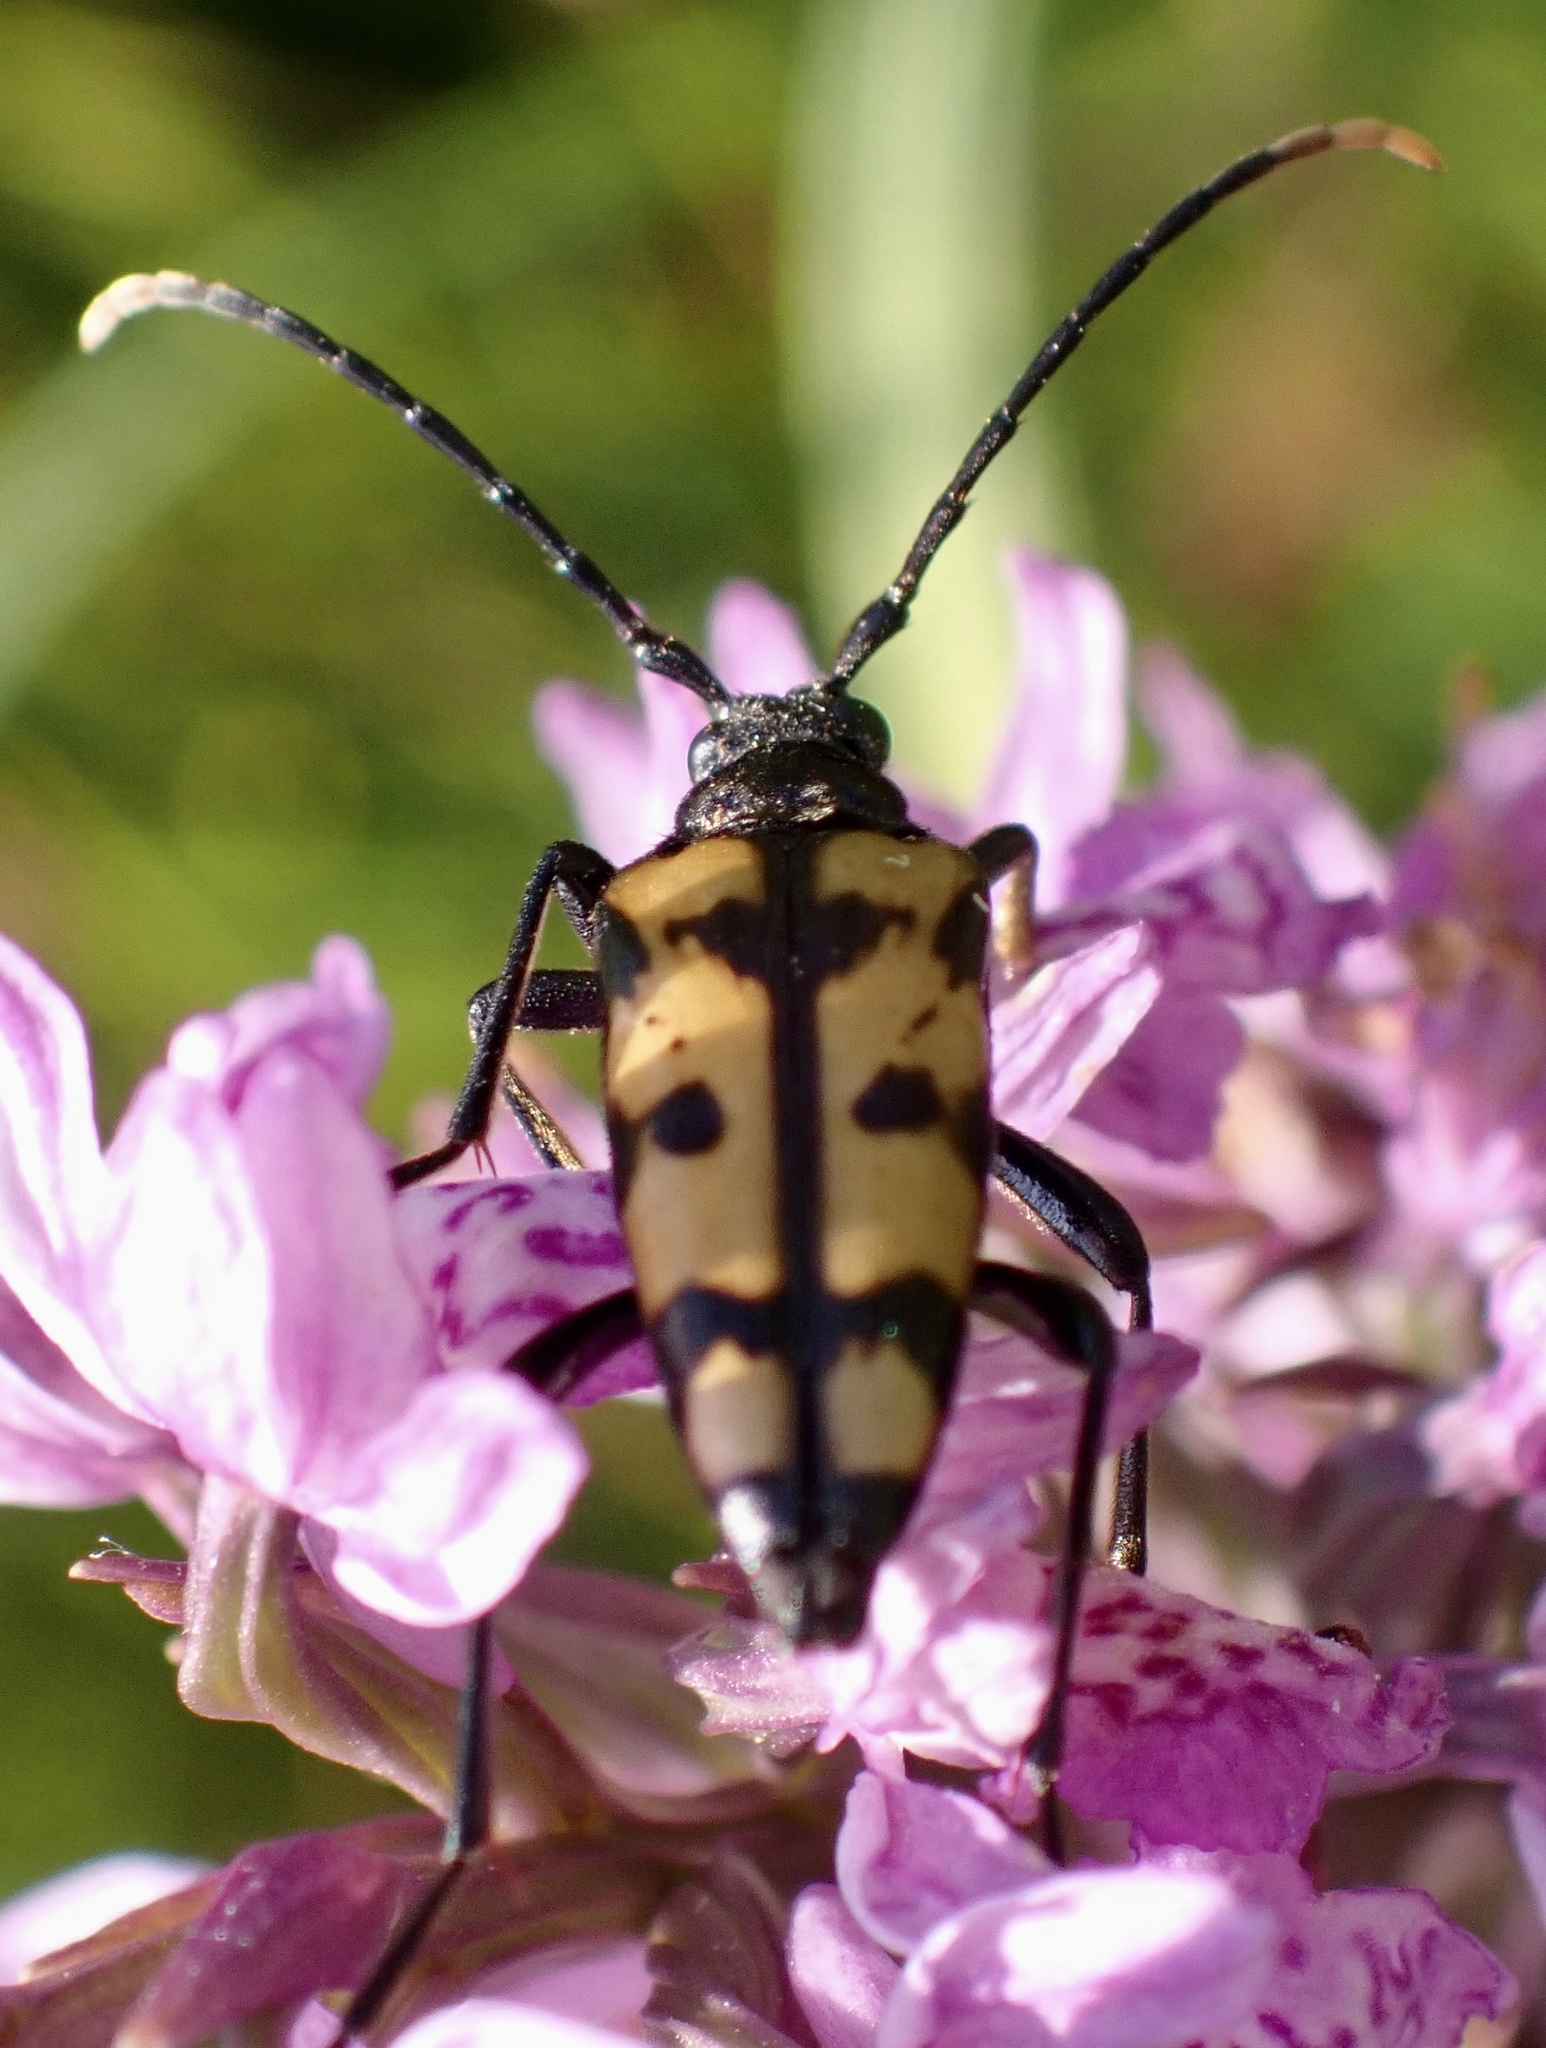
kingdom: Animalia
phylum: Arthropoda
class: Insecta
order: Coleoptera
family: Cerambycidae
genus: Leptura
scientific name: Leptura quadrifasciata
